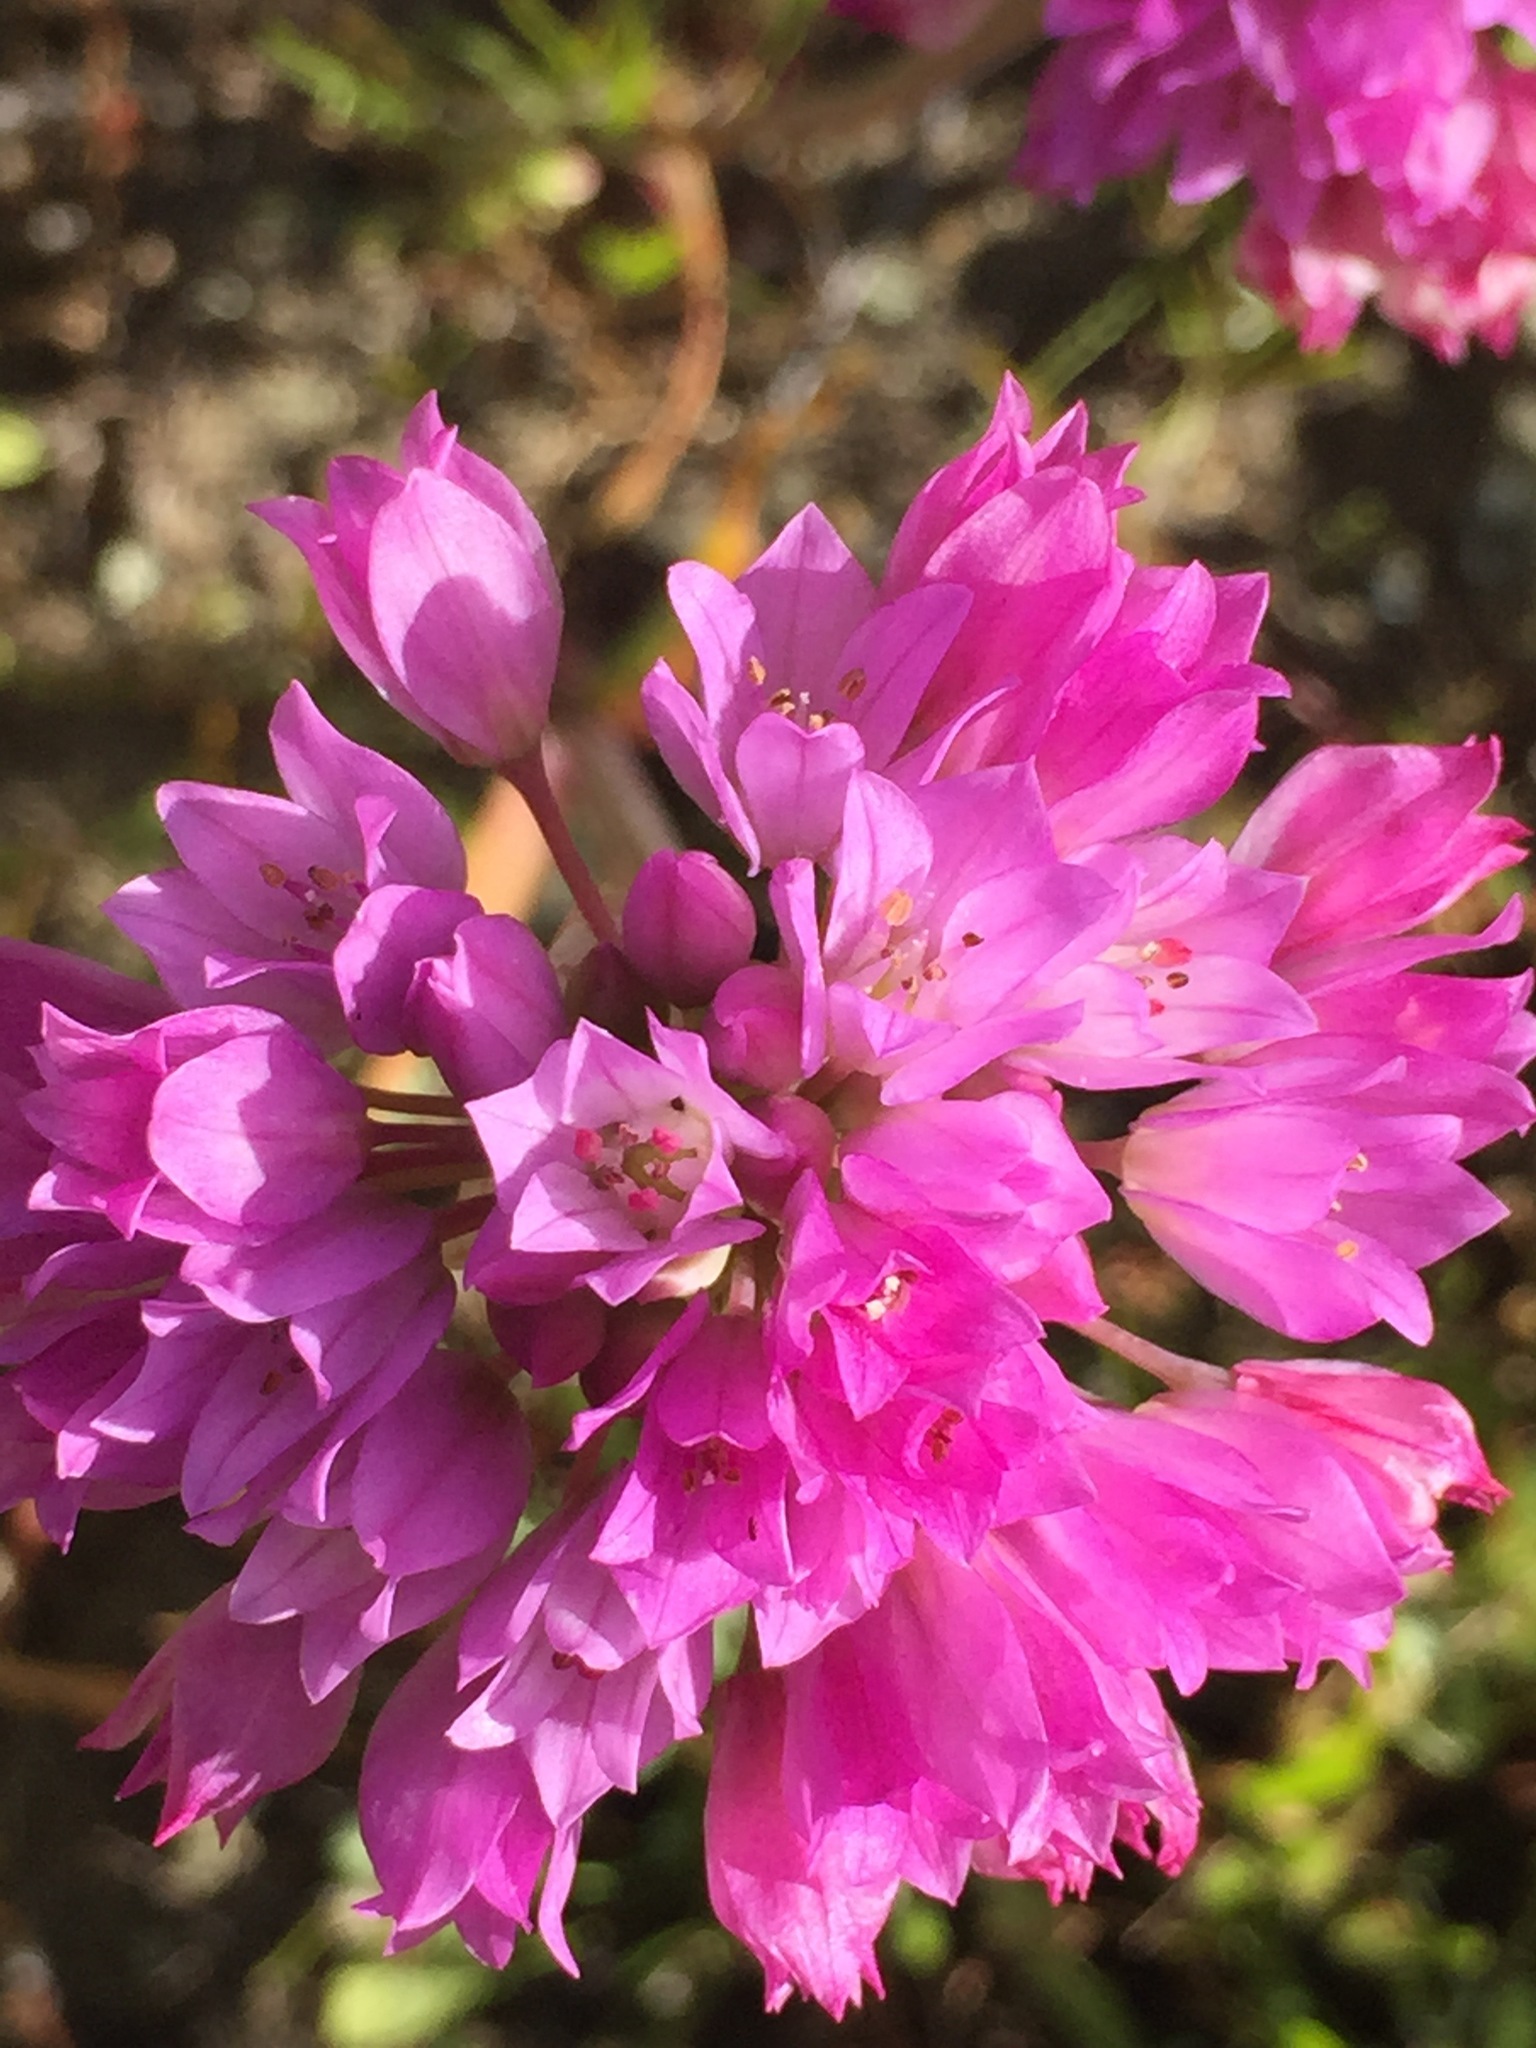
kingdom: Plantae
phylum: Tracheophyta
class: Liliopsida
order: Asparagales
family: Amaryllidaceae
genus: Allium
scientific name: Allium serra
